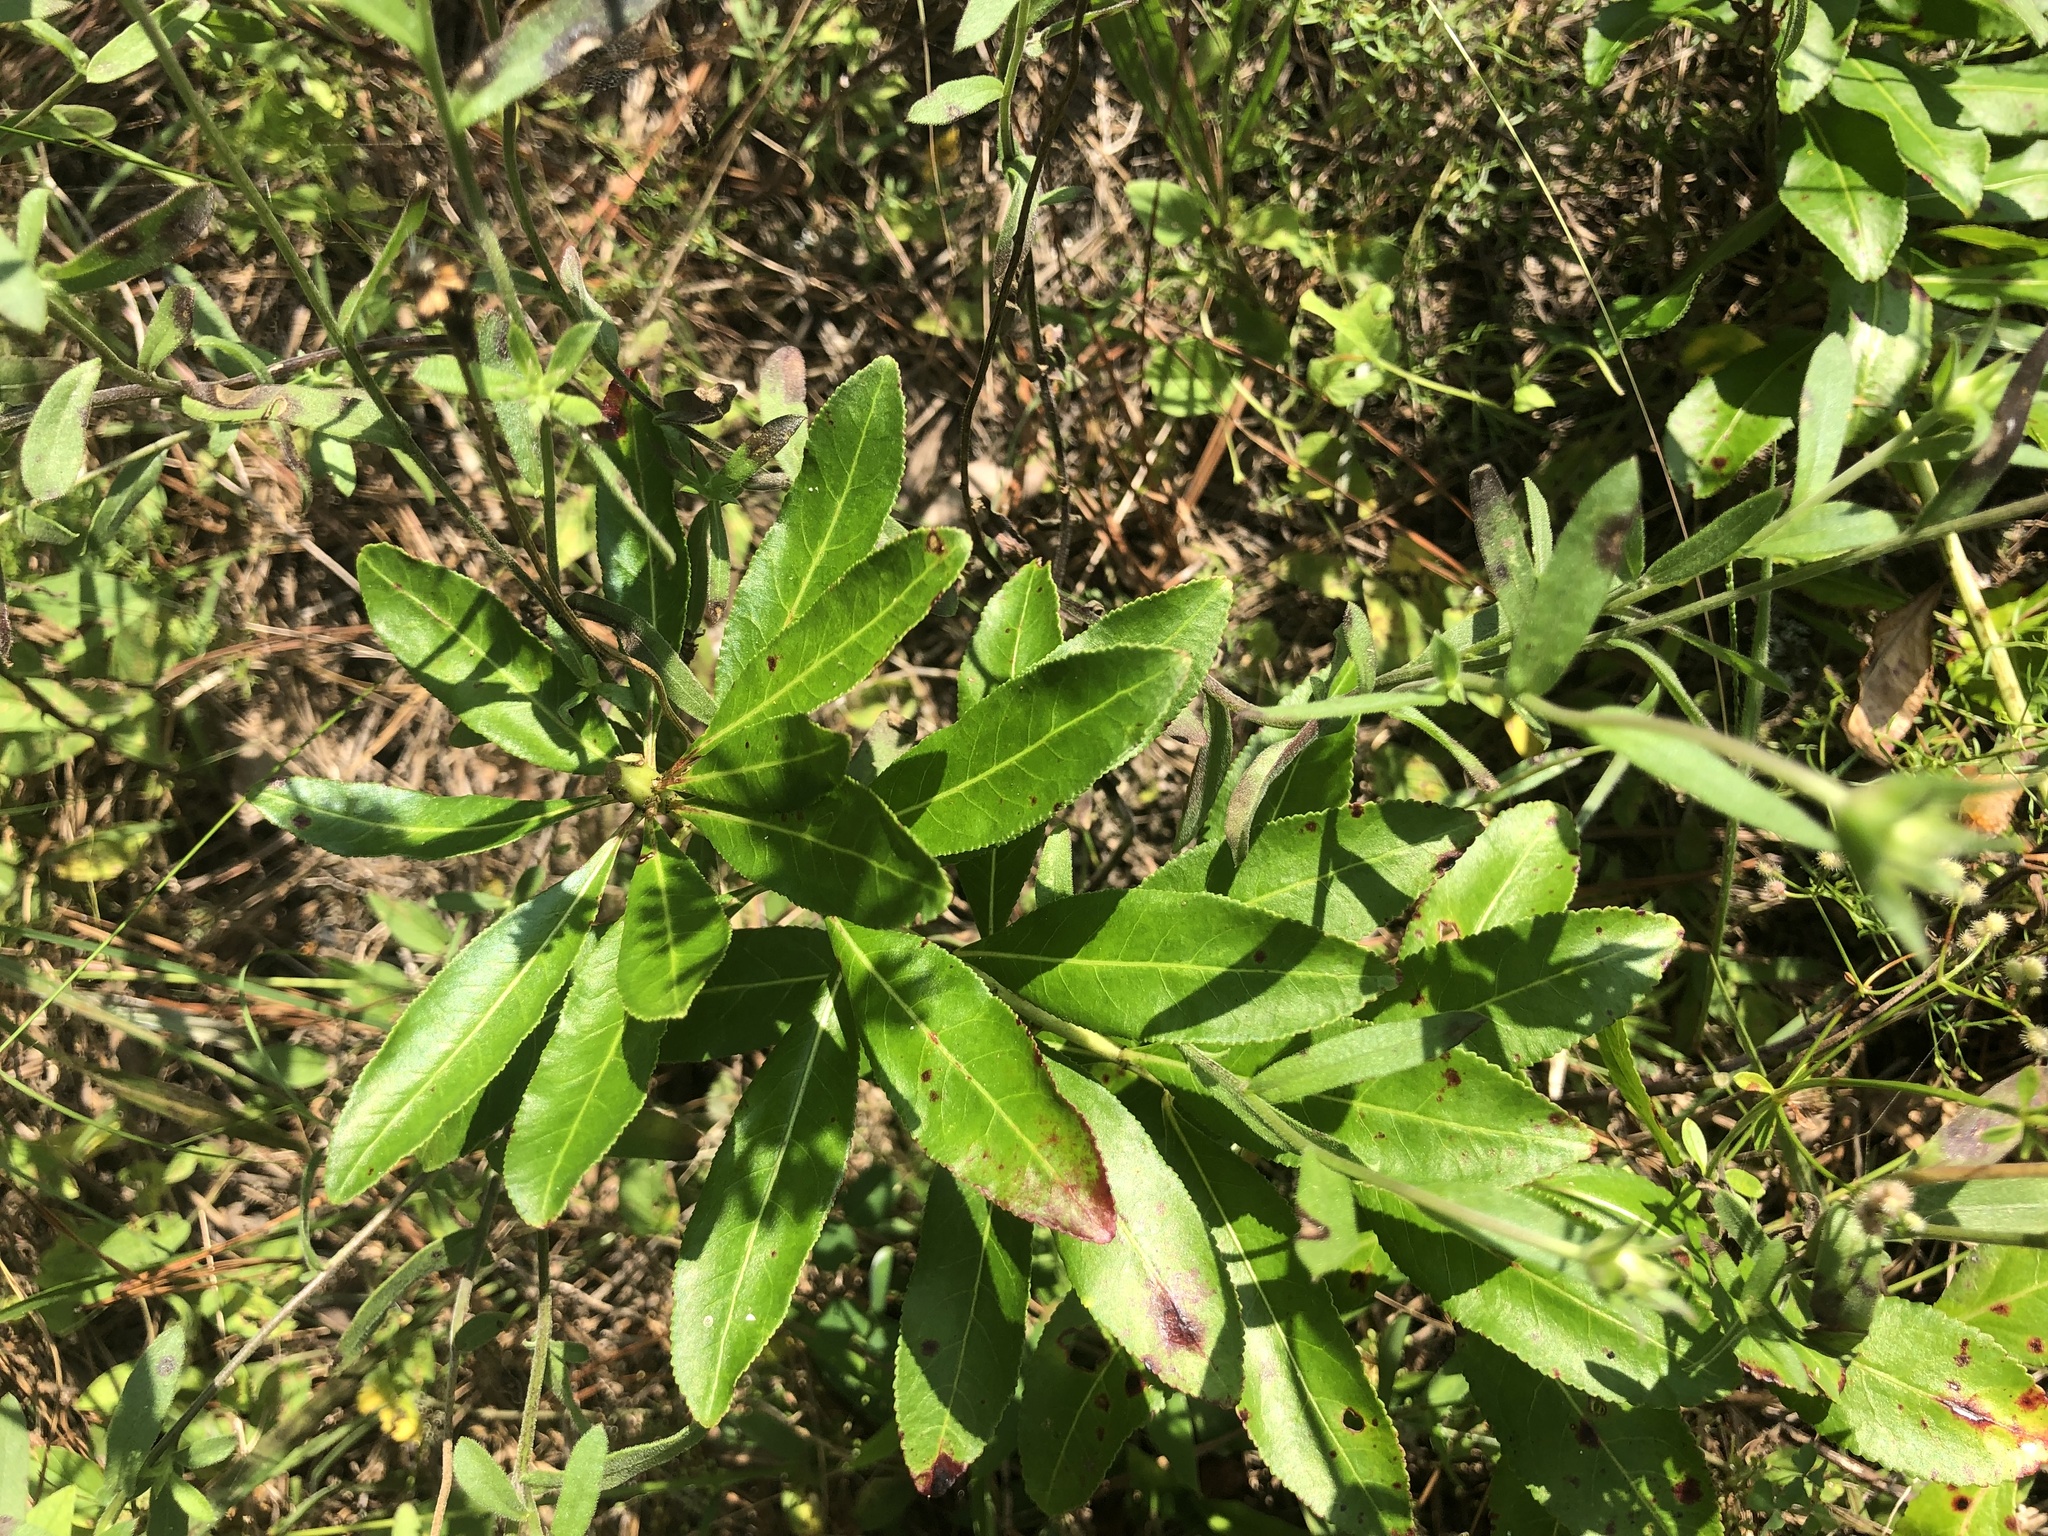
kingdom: Plantae
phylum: Tracheophyta
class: Magnoliopsida
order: Malpighiales
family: Euphorbiaceae
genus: Stillingia
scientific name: Stillingia sylvatica
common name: Queen's-delight
